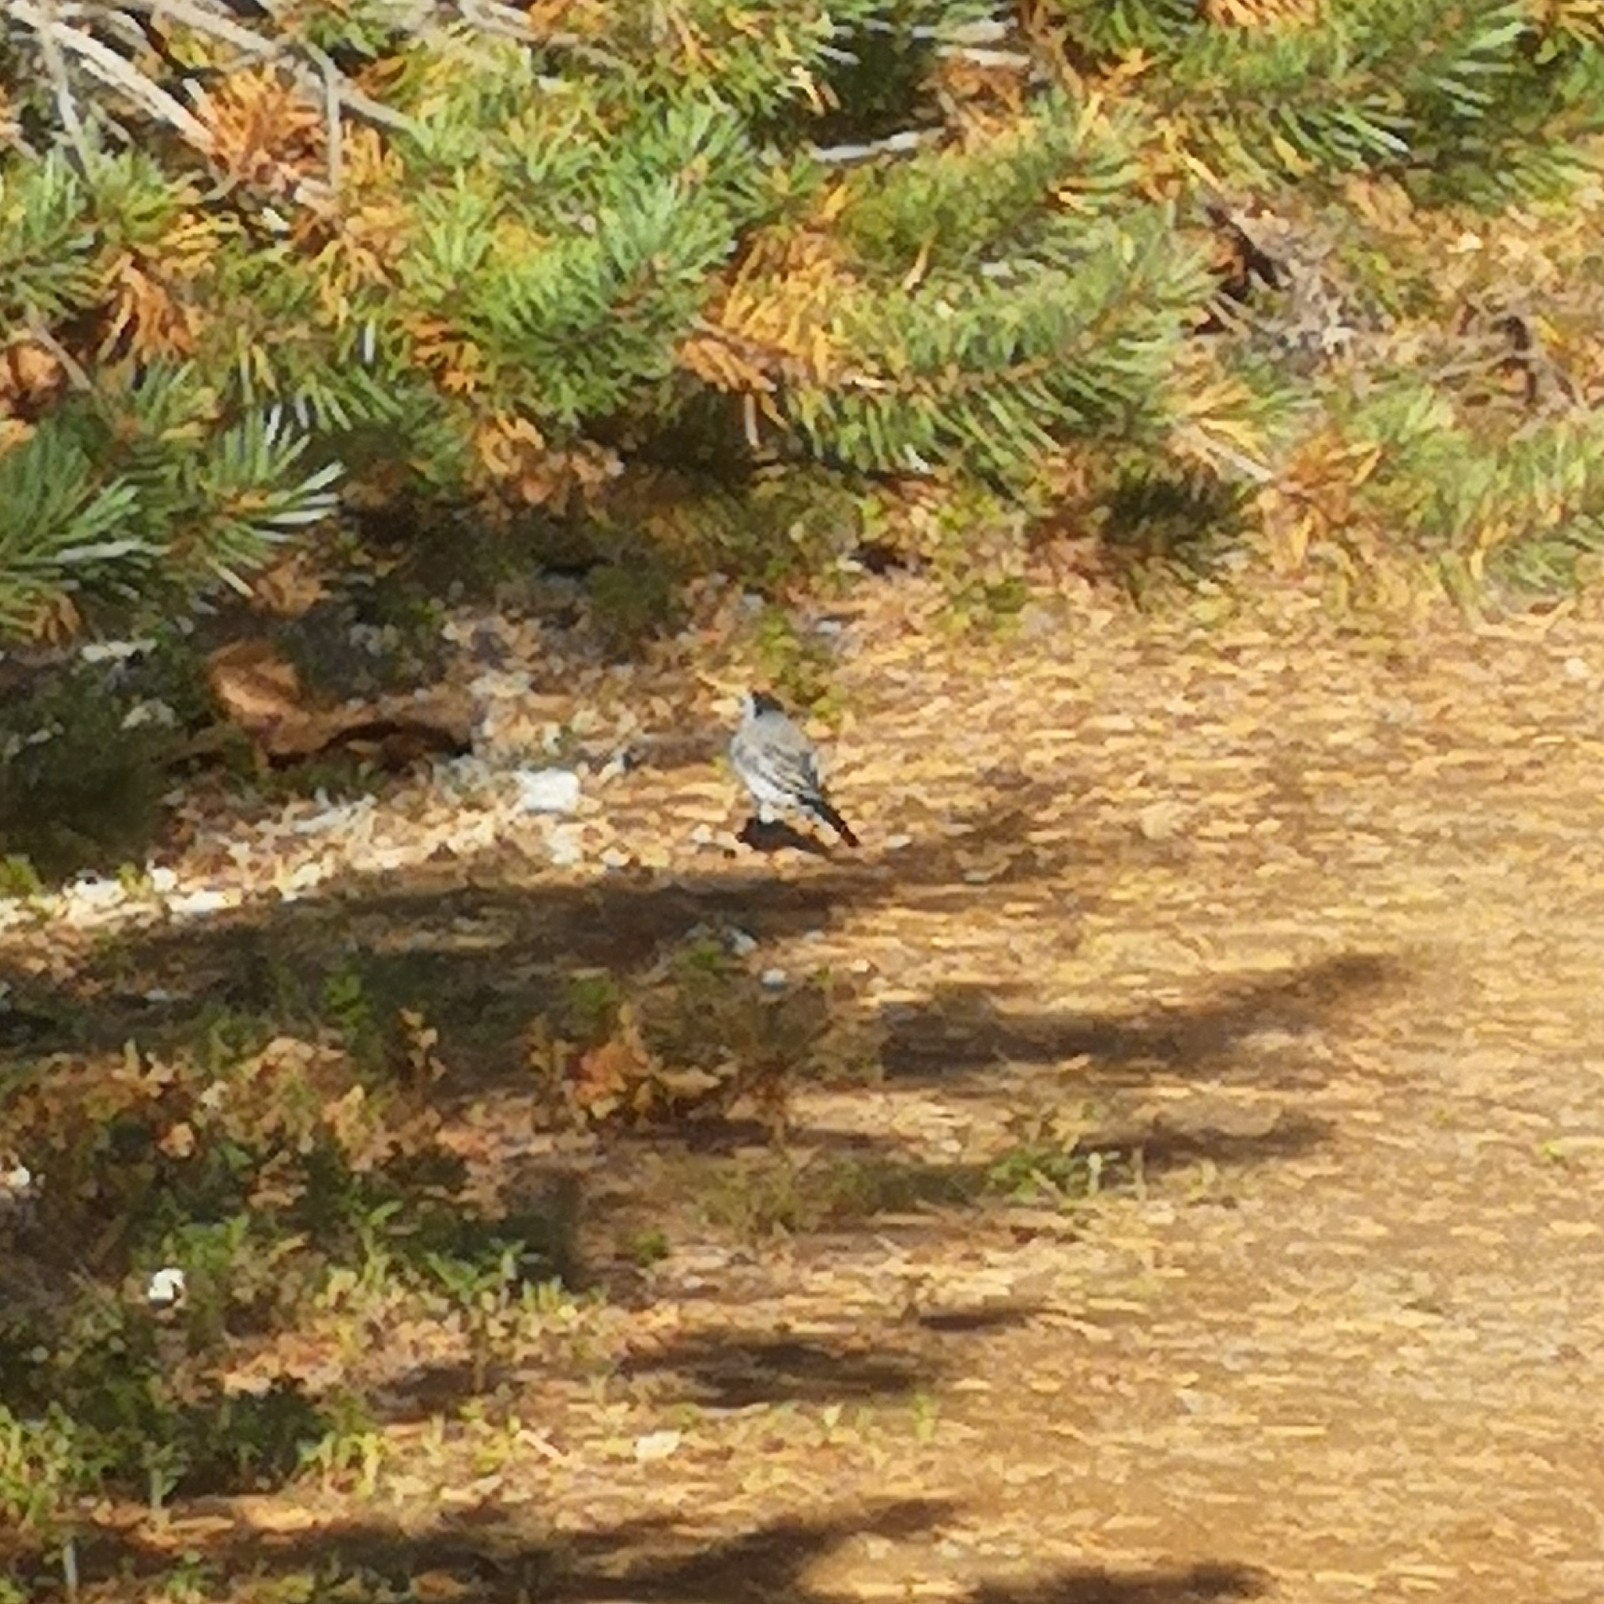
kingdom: Animalia
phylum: Chordata
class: Aves
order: Passeriformes
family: Motacillidae
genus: Motacilla
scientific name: Motacilla alba
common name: White wagtail
